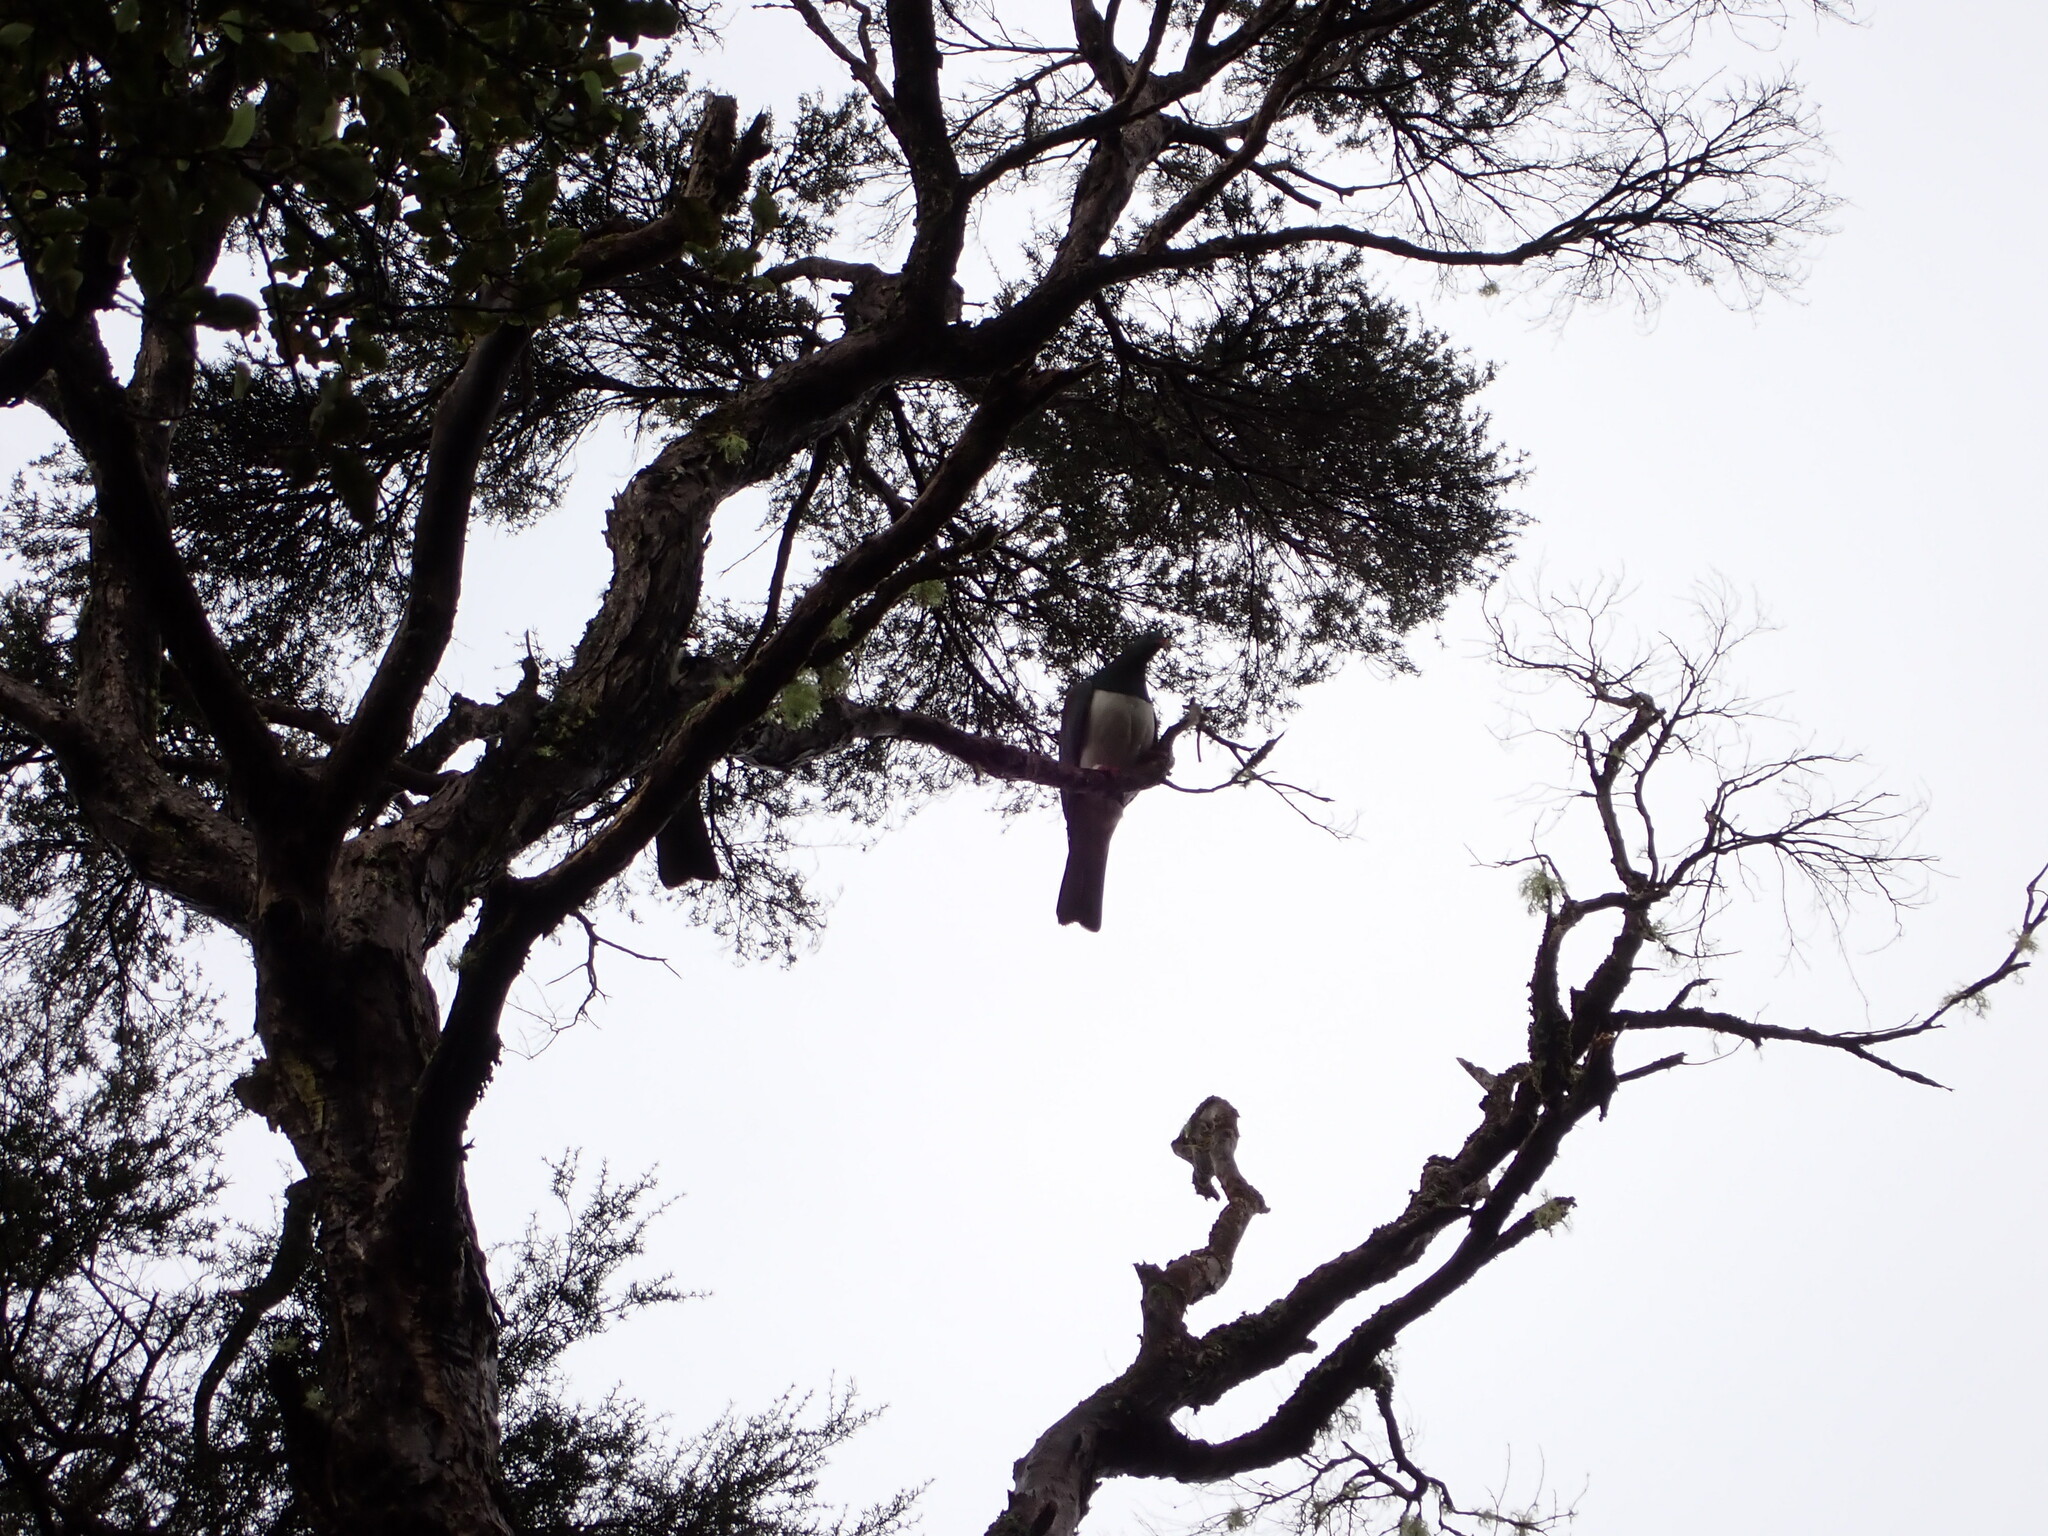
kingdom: Animalia
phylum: Chordata
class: Aves
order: Columbiformes
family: Columbidae
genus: Hemiphaga
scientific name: Hemiphaga novaeseelandiae
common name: New zealand pigeon
